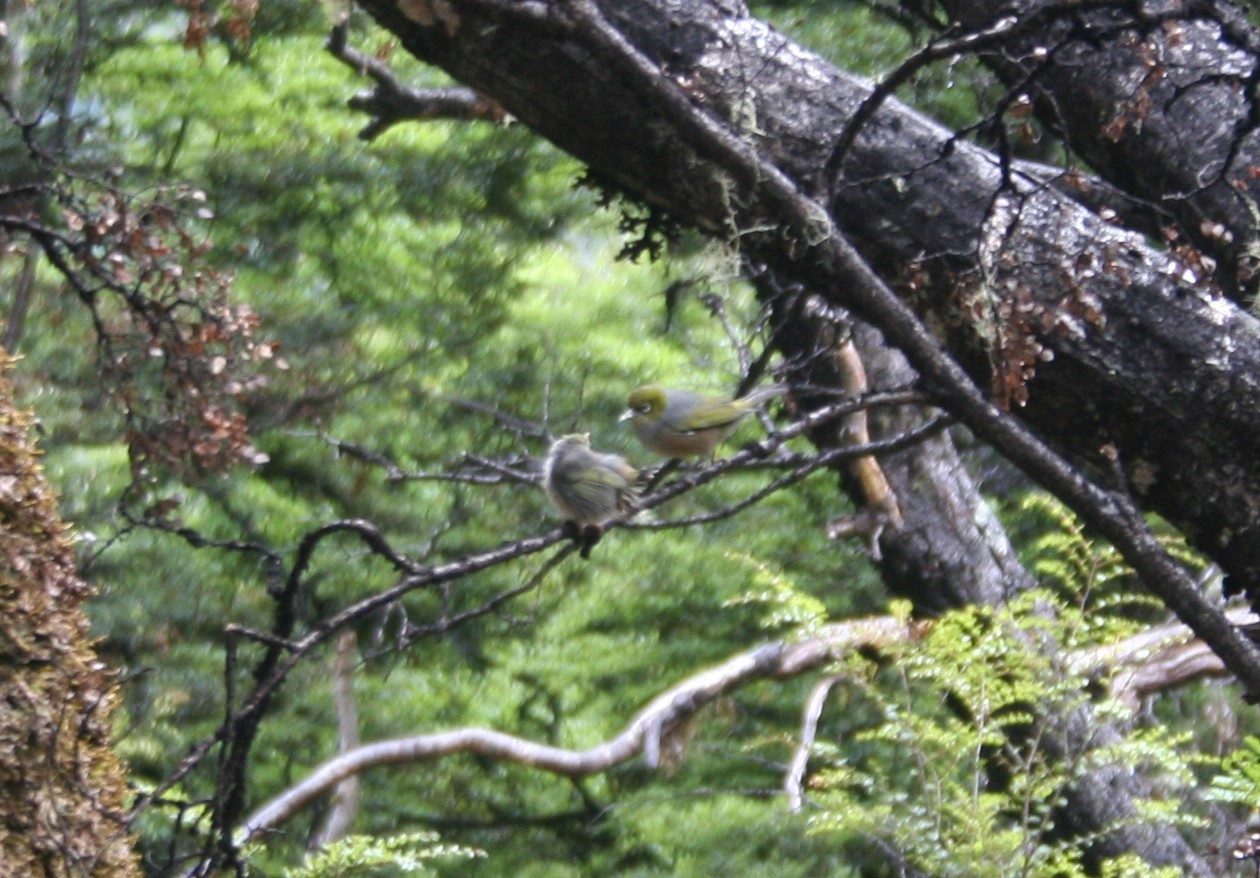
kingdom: Animalia
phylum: Chordata
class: Aves
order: Passeriformes
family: Zosteropidae
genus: Zosterops
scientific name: Zosterops lateralis
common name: Silvereye
